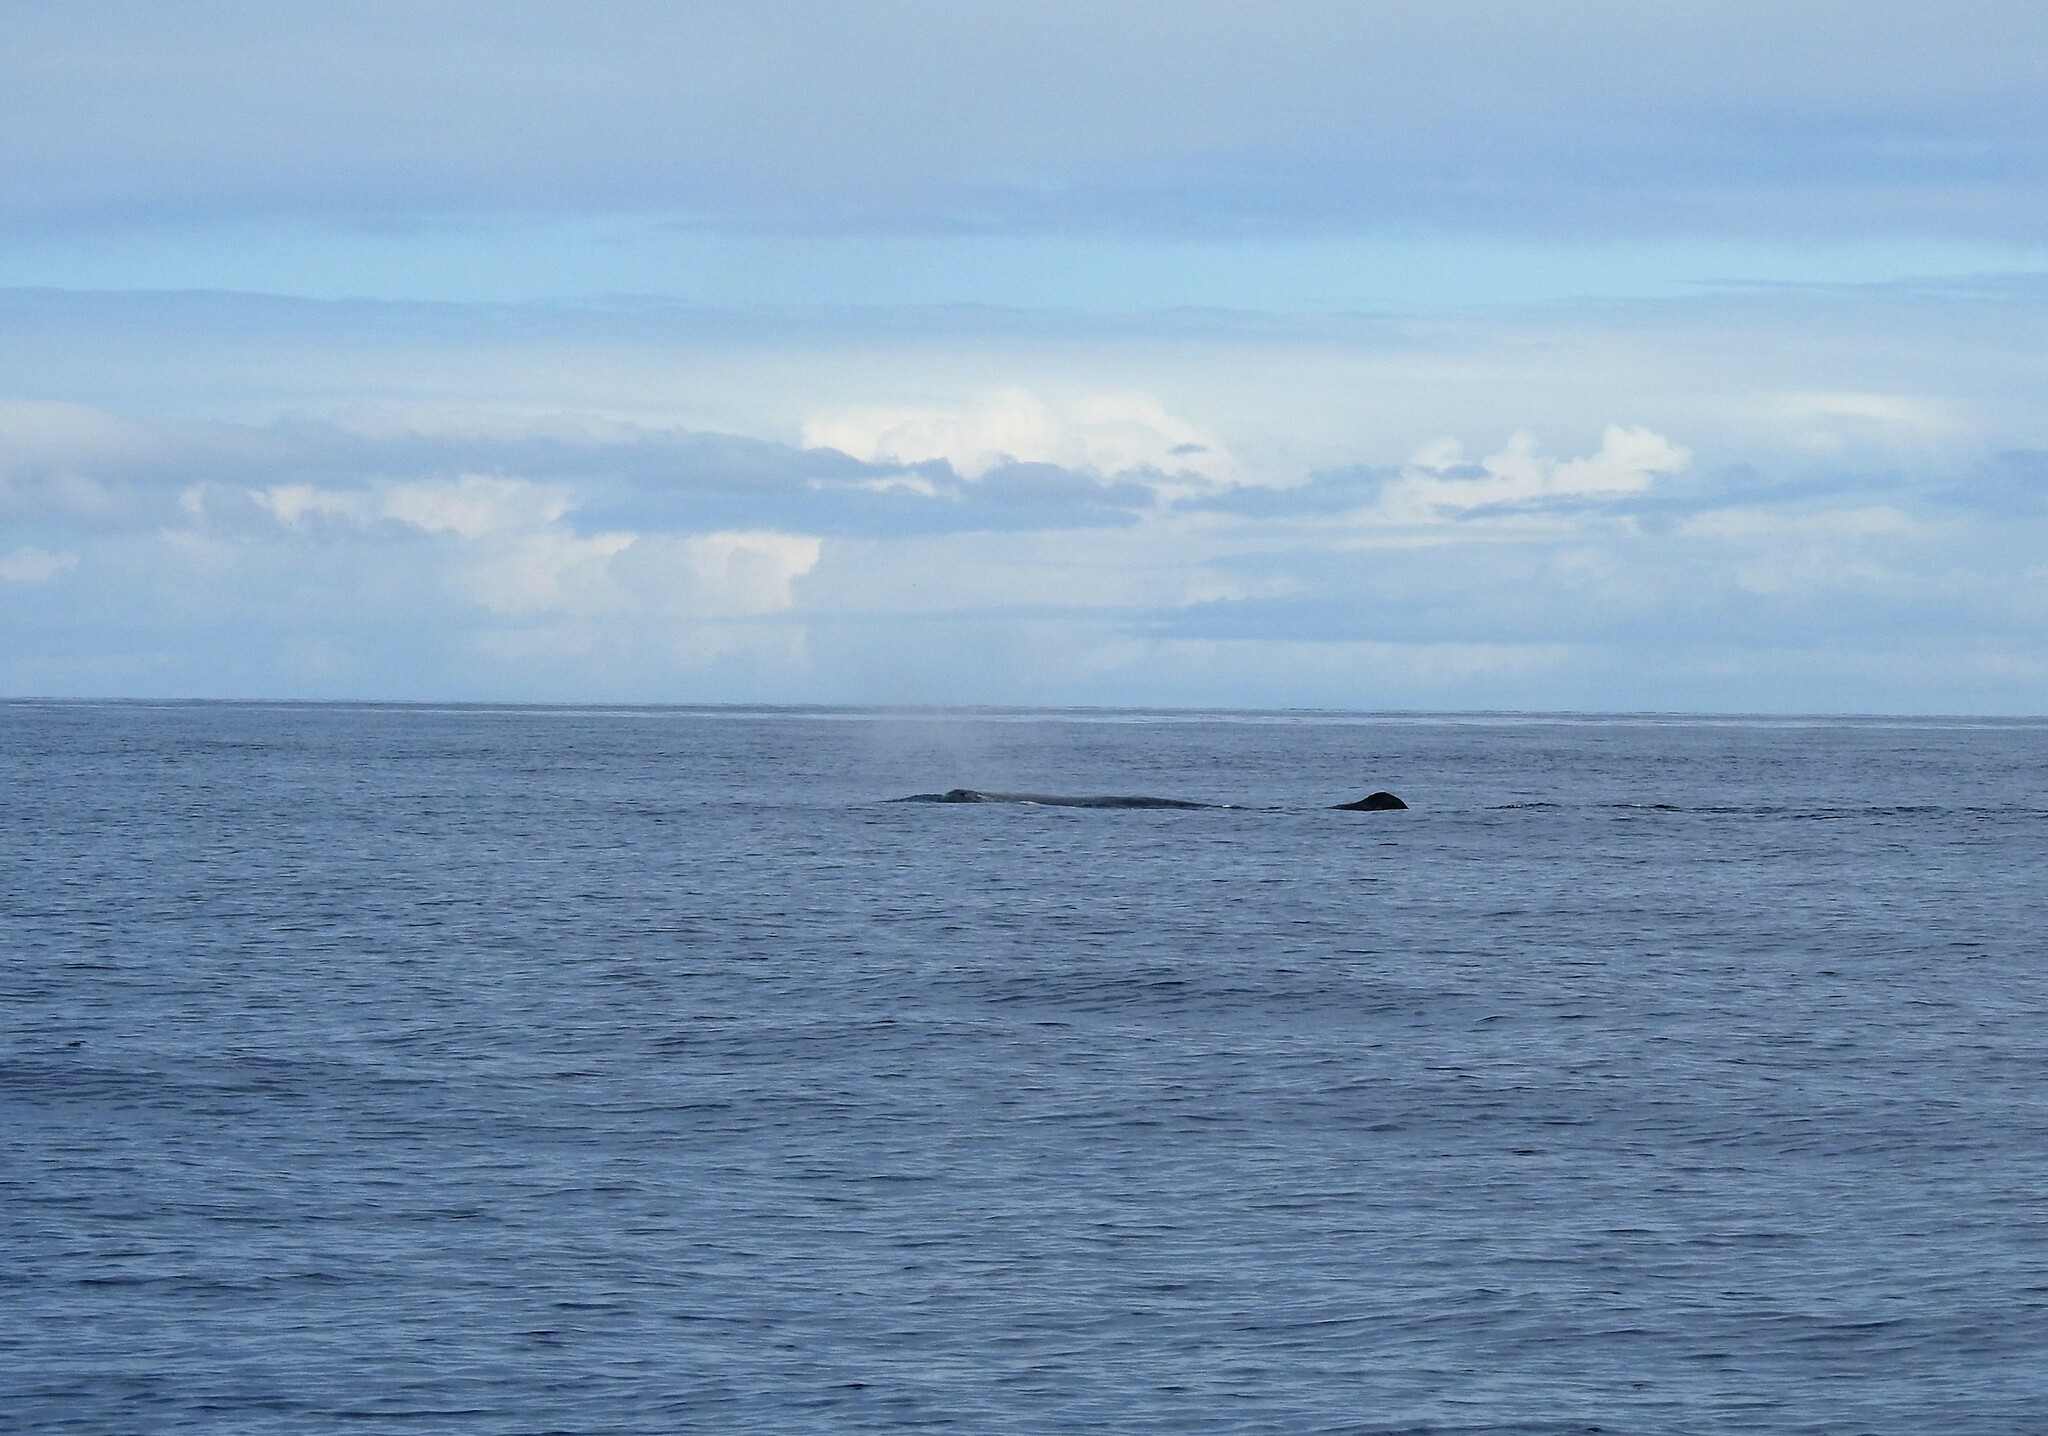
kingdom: Animalia
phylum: Chordata
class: Mammalia
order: Cetacea
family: Physeteridae
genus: Physeter
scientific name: Physeter macrocephalus
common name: Sperm whale
